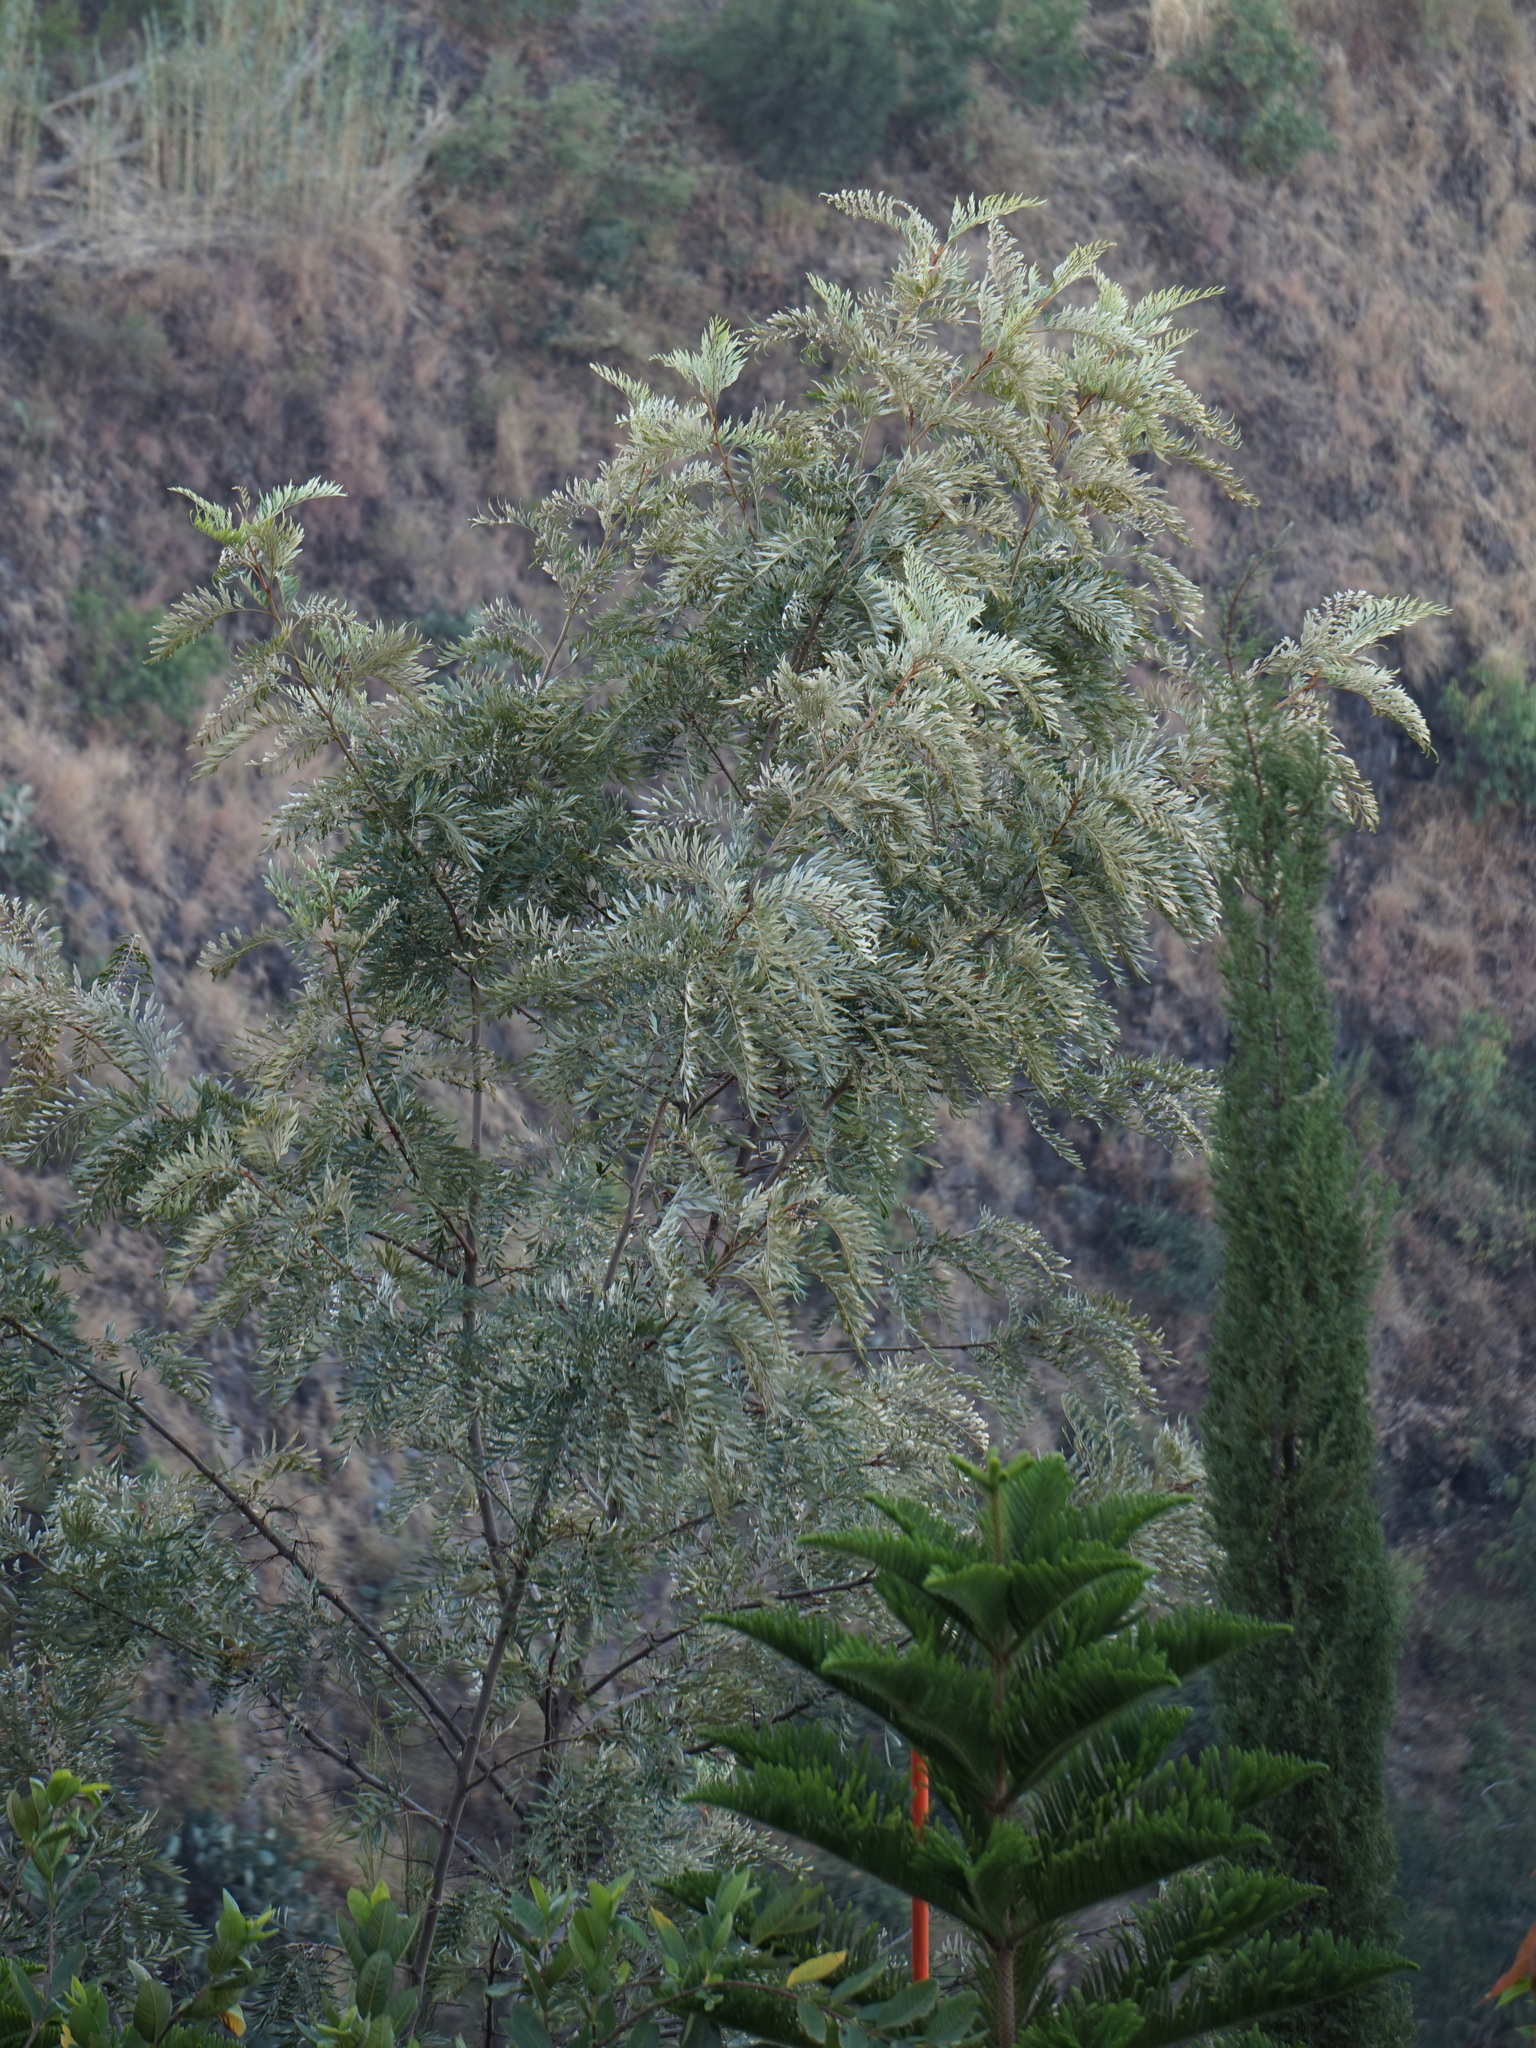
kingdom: Plantae
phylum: Tracheophyta
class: Magnoliopsida
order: Proteales
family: Proteaceae
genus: Grevillea
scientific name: Grevillea robusta
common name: Silkoak
